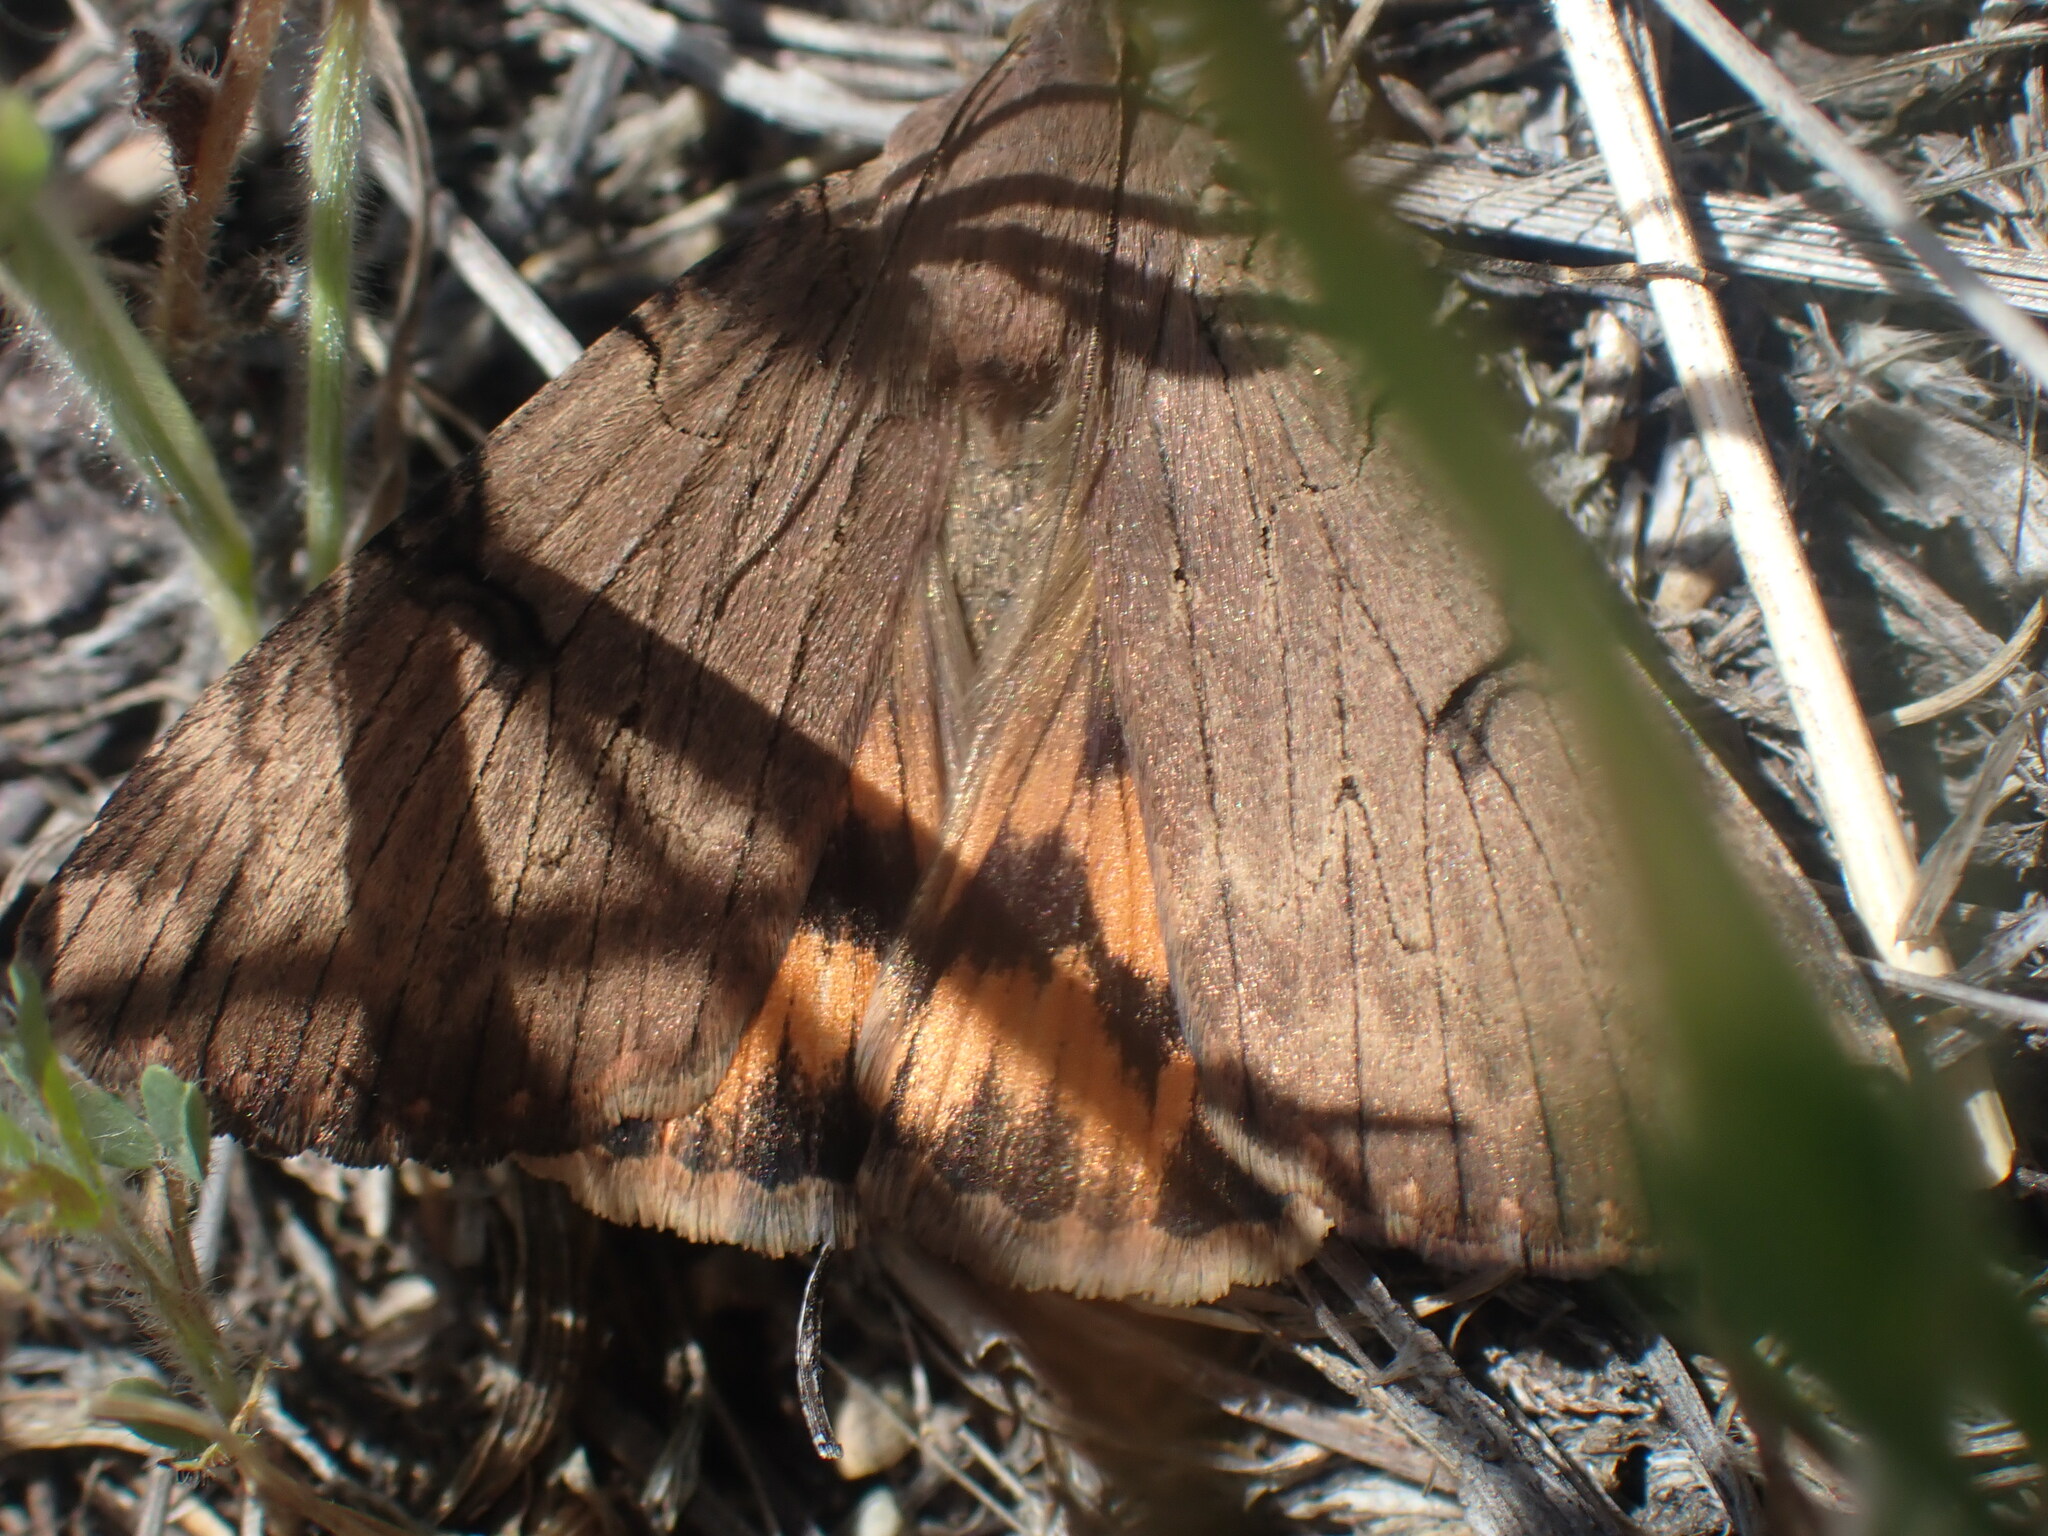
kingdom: Animalia
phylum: Arthropoda
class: Insecta
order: Lepidoptera
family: Erebidae
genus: Drasteria
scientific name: Drasteria ochracea
